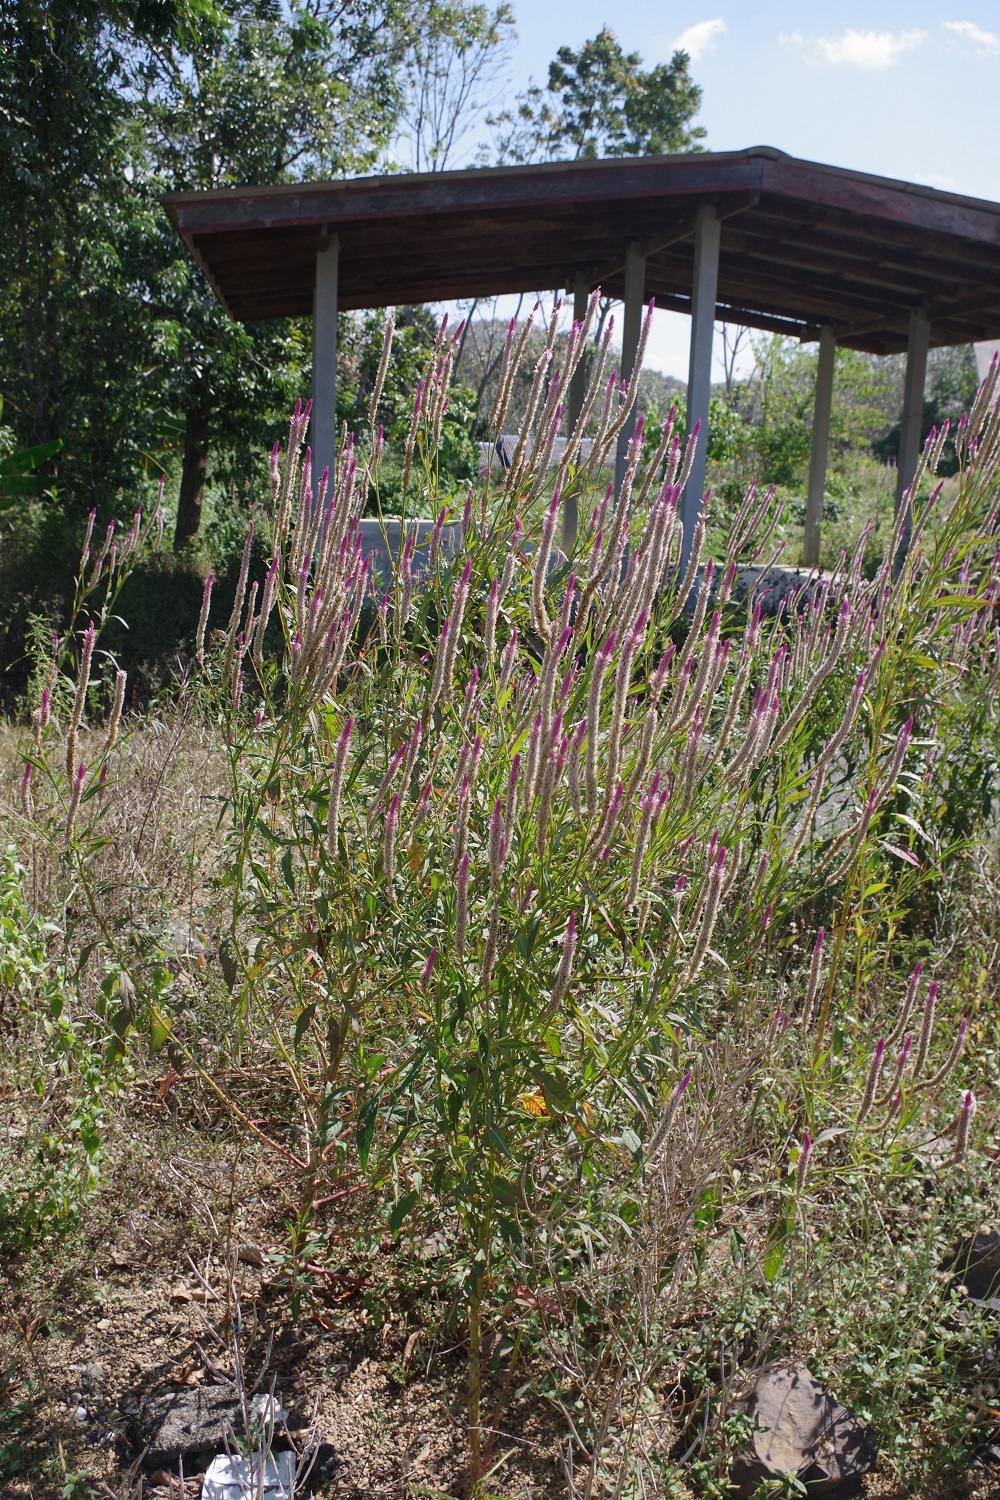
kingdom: Plantae
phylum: Tracheophyta
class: Magnoliopsida
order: Caryophyllales
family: Amaranthaceae
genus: Celosia
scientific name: Celosia argentea
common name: Feather cockscomb
